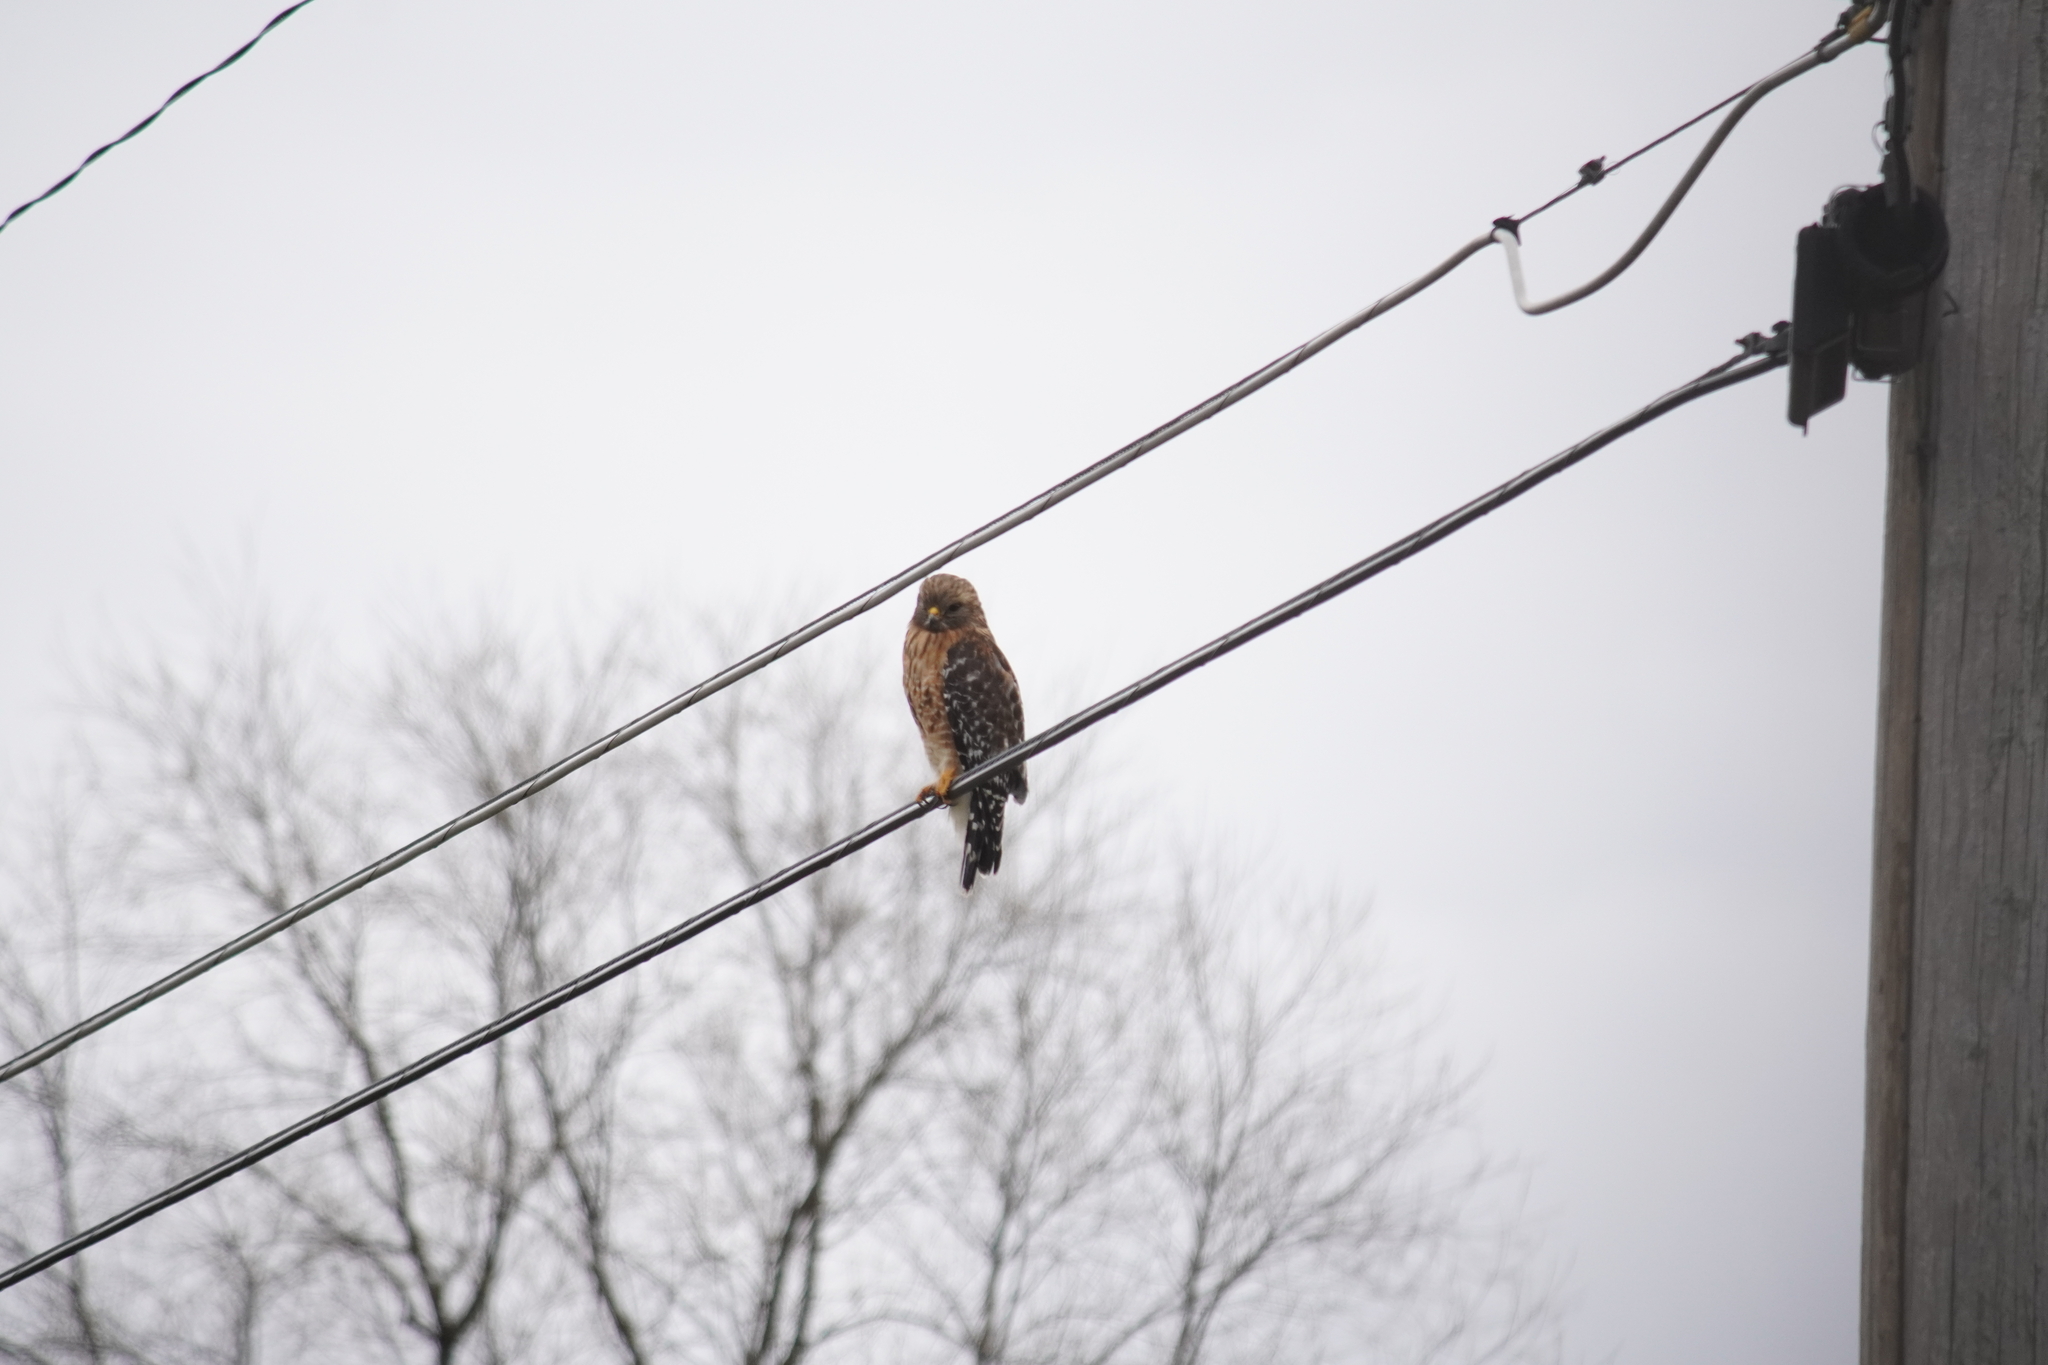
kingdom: Animalia
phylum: Chordata
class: Aves
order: Accipitriformes
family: Accipitridae
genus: Buteo
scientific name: Buteo lineatus
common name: Red-shouldered hawk
